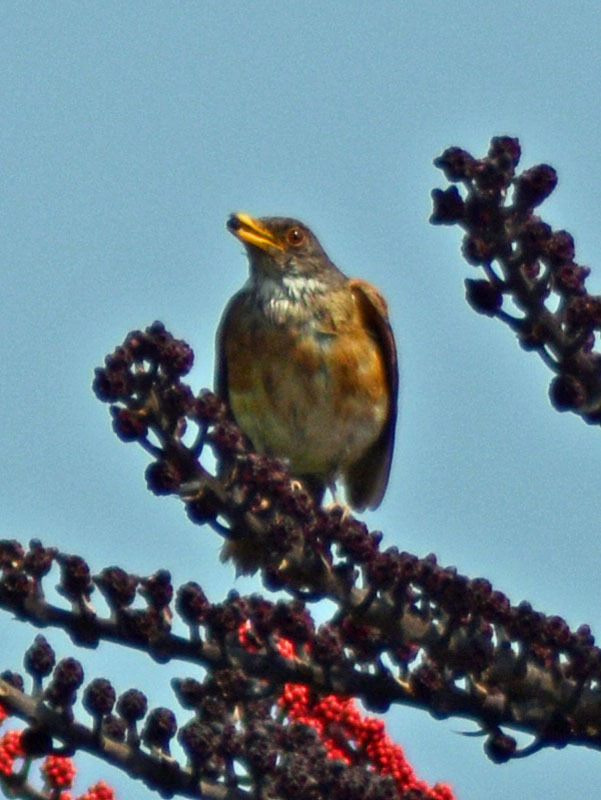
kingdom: Animalia
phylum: Chordata
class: Aves
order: Passeriformes
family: Turdidae
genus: Turdus
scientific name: Turdus rufopalliatus
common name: Rufous-backed robin
